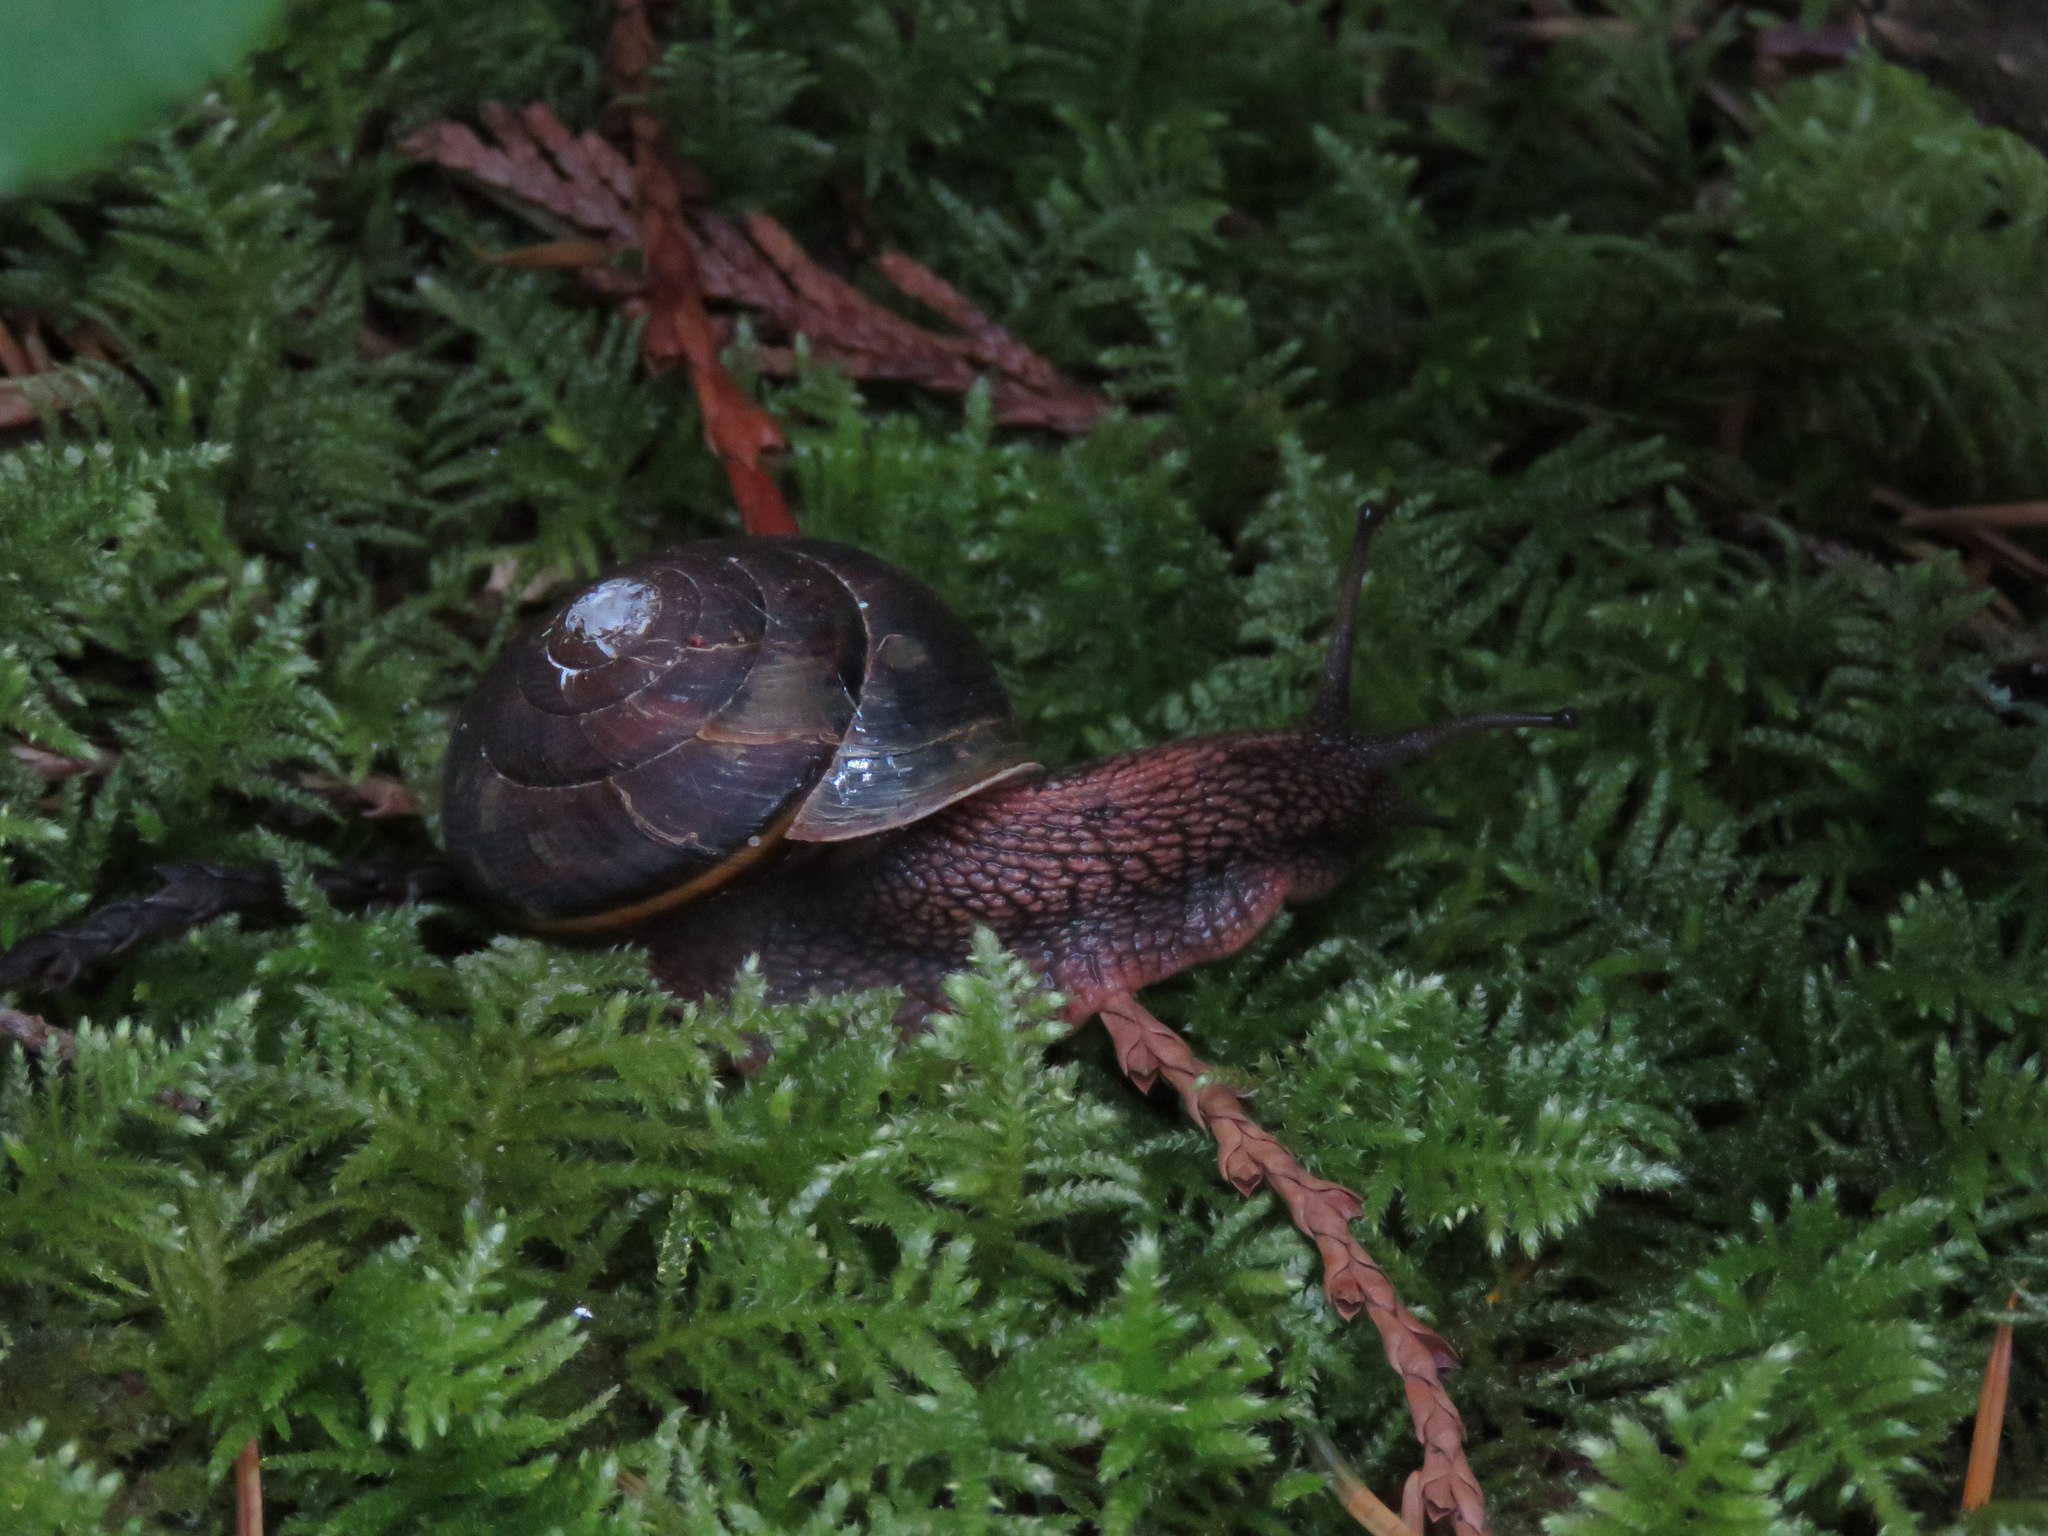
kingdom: Animalia
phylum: Mollusca
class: Gastropoda
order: Stylommatophora
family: Xanthonychidae
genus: Monadenia
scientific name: Monadenia fidelis
